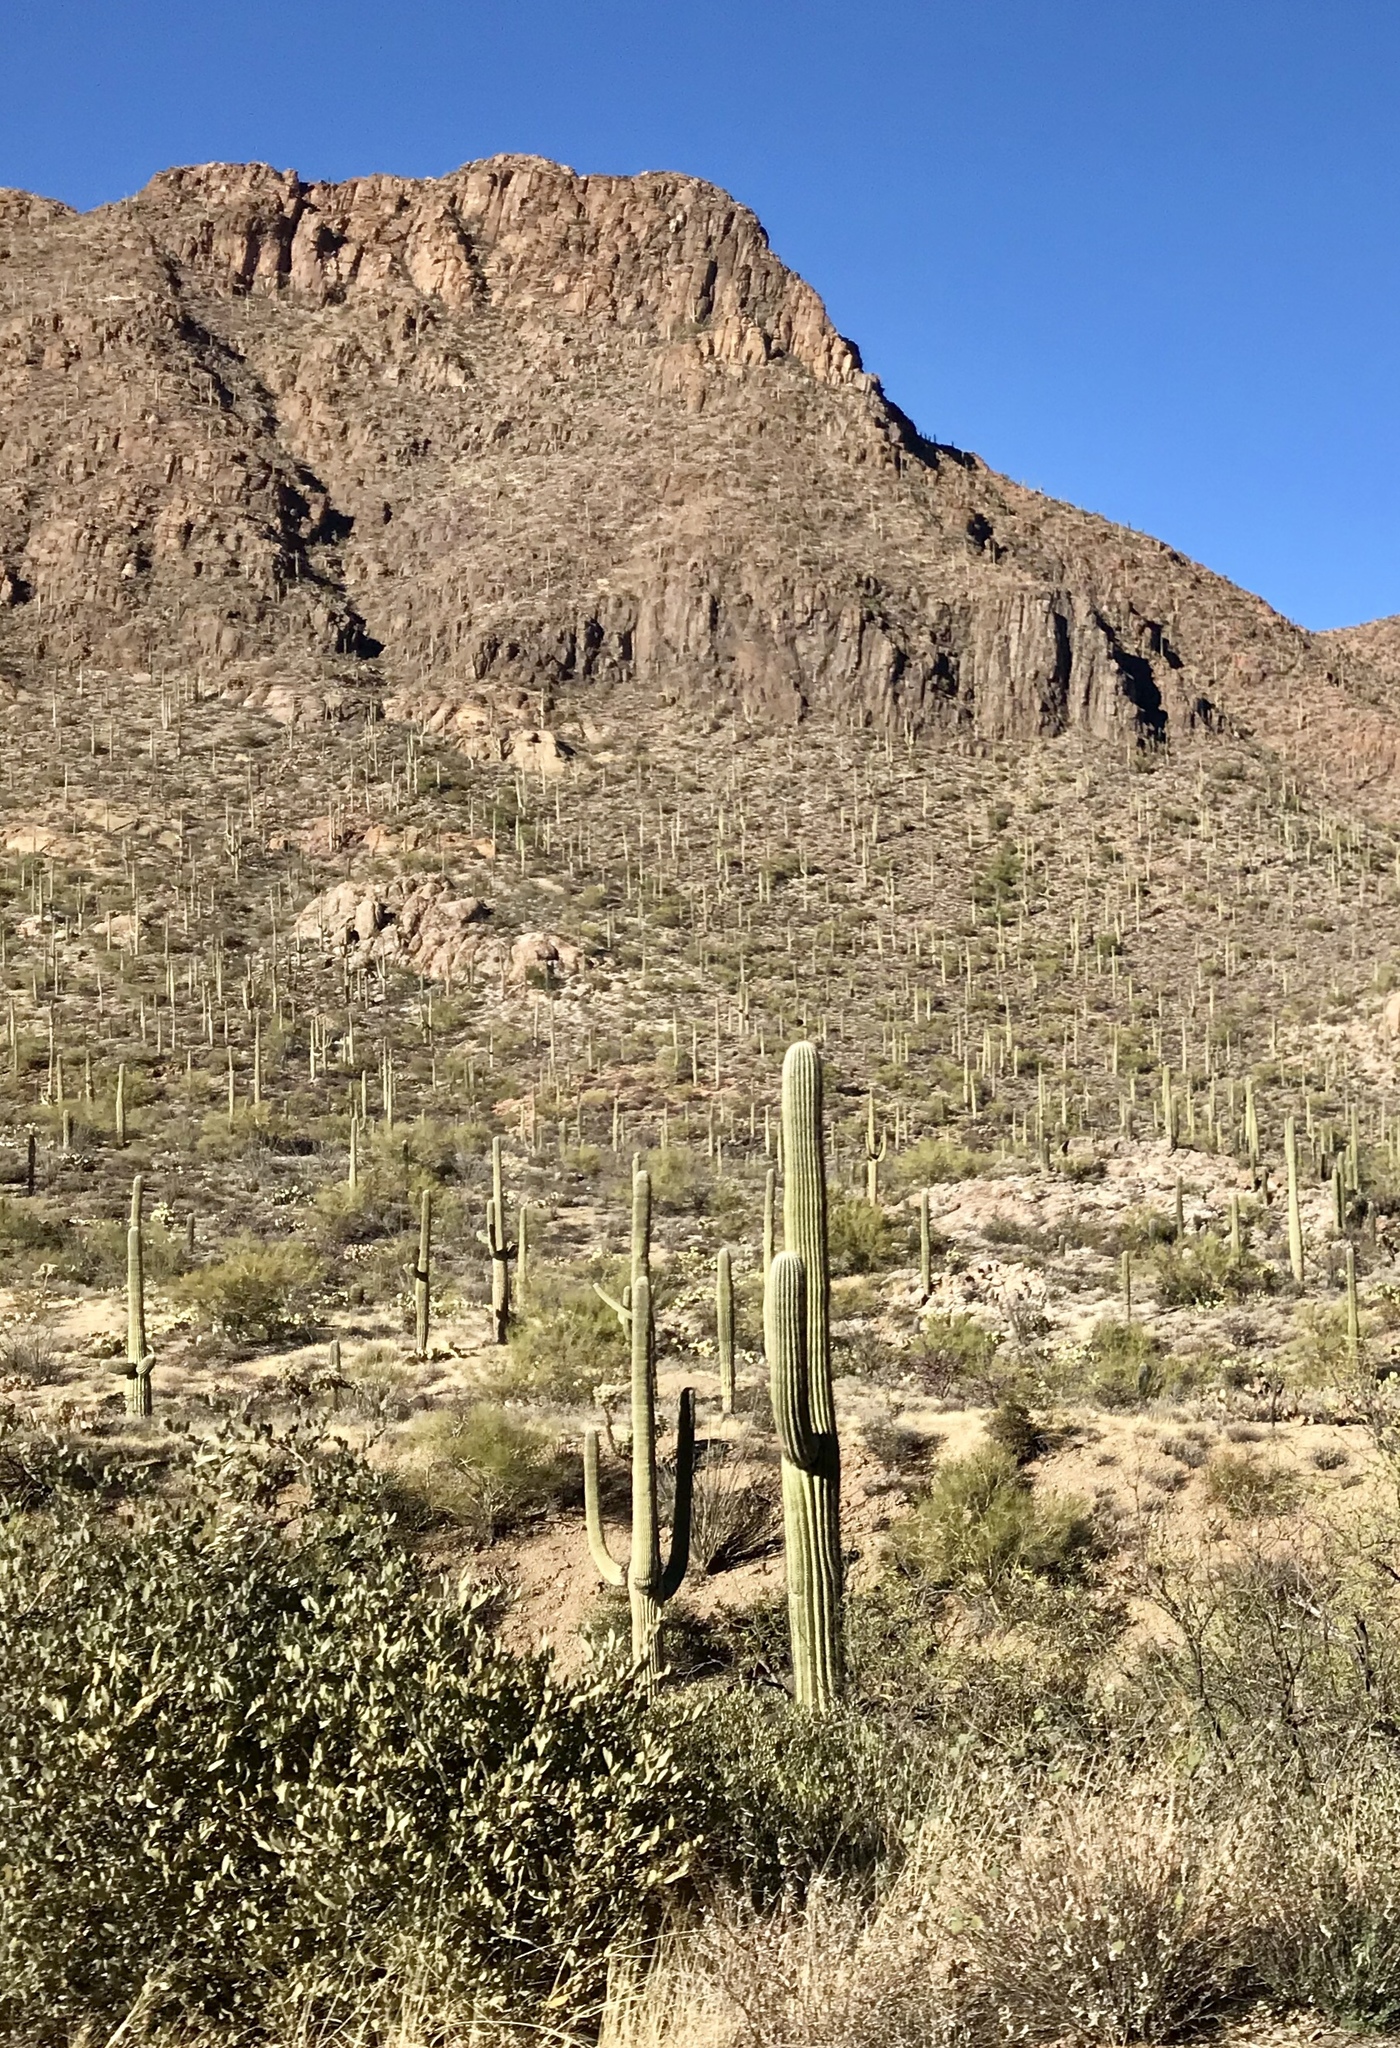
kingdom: Plantae
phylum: Tracheophyta
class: Magnoliopsida
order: Caryophyllales
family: Cactaceae
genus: Carnegiea
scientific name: Carnegiea gigantea
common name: Saguaro
